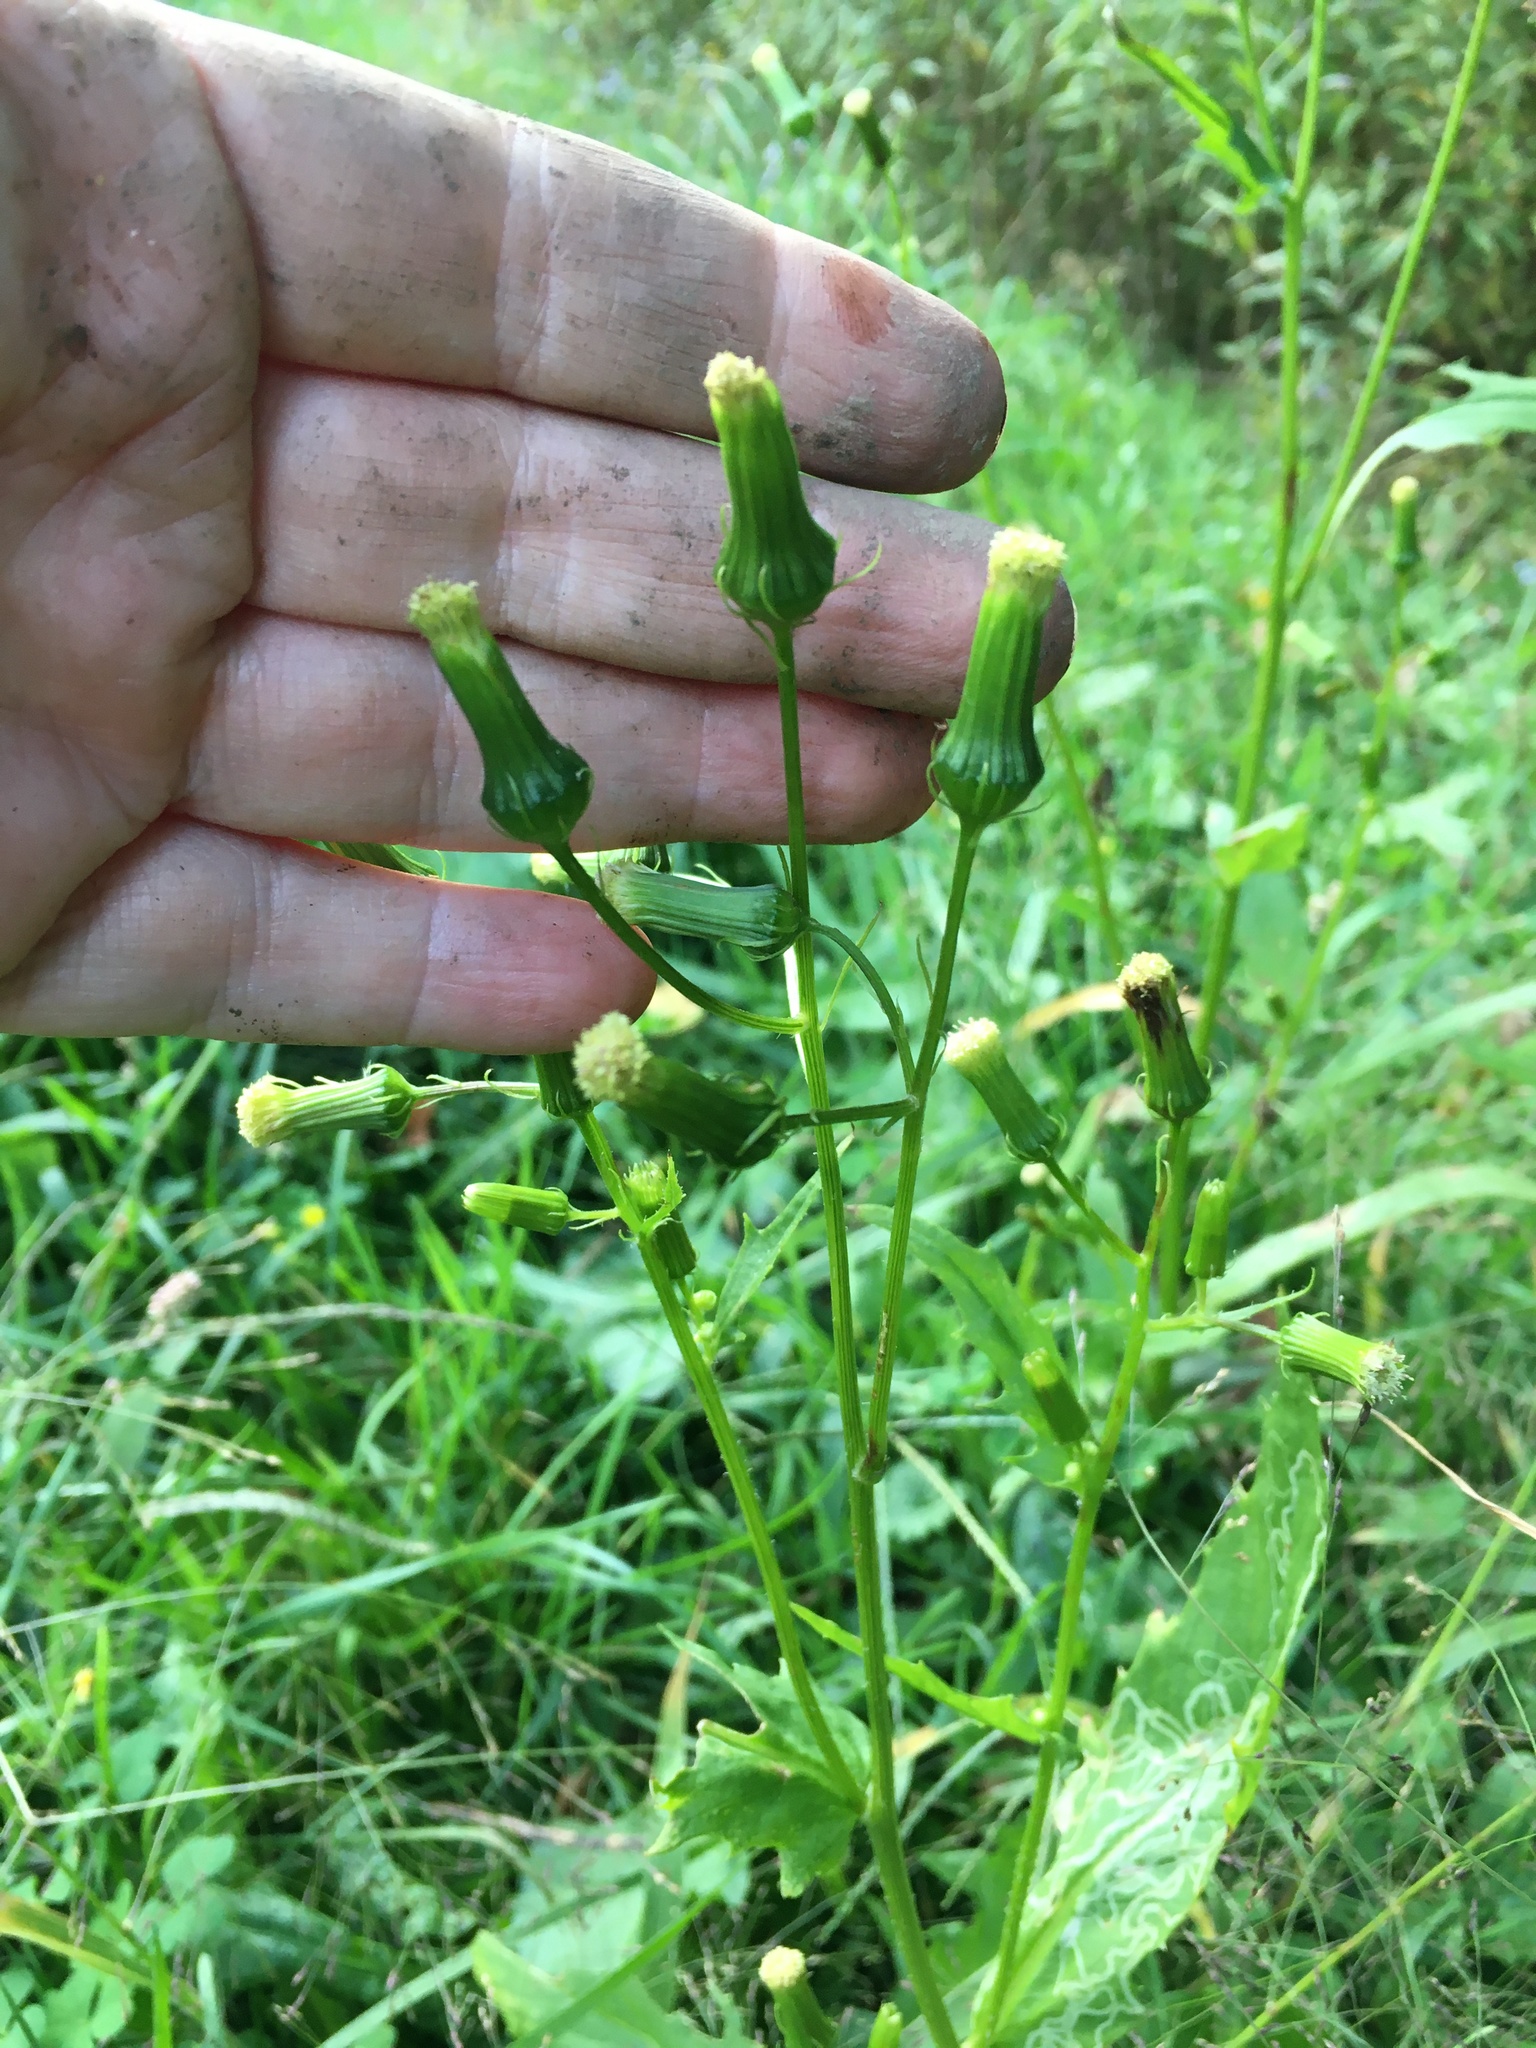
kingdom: Plantae
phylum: Tracheophyta
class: Magnoliopsida
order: Asterales
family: Asteraceae
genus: Erechtites
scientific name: Erechtites hieraciifolius
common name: American burnweed
